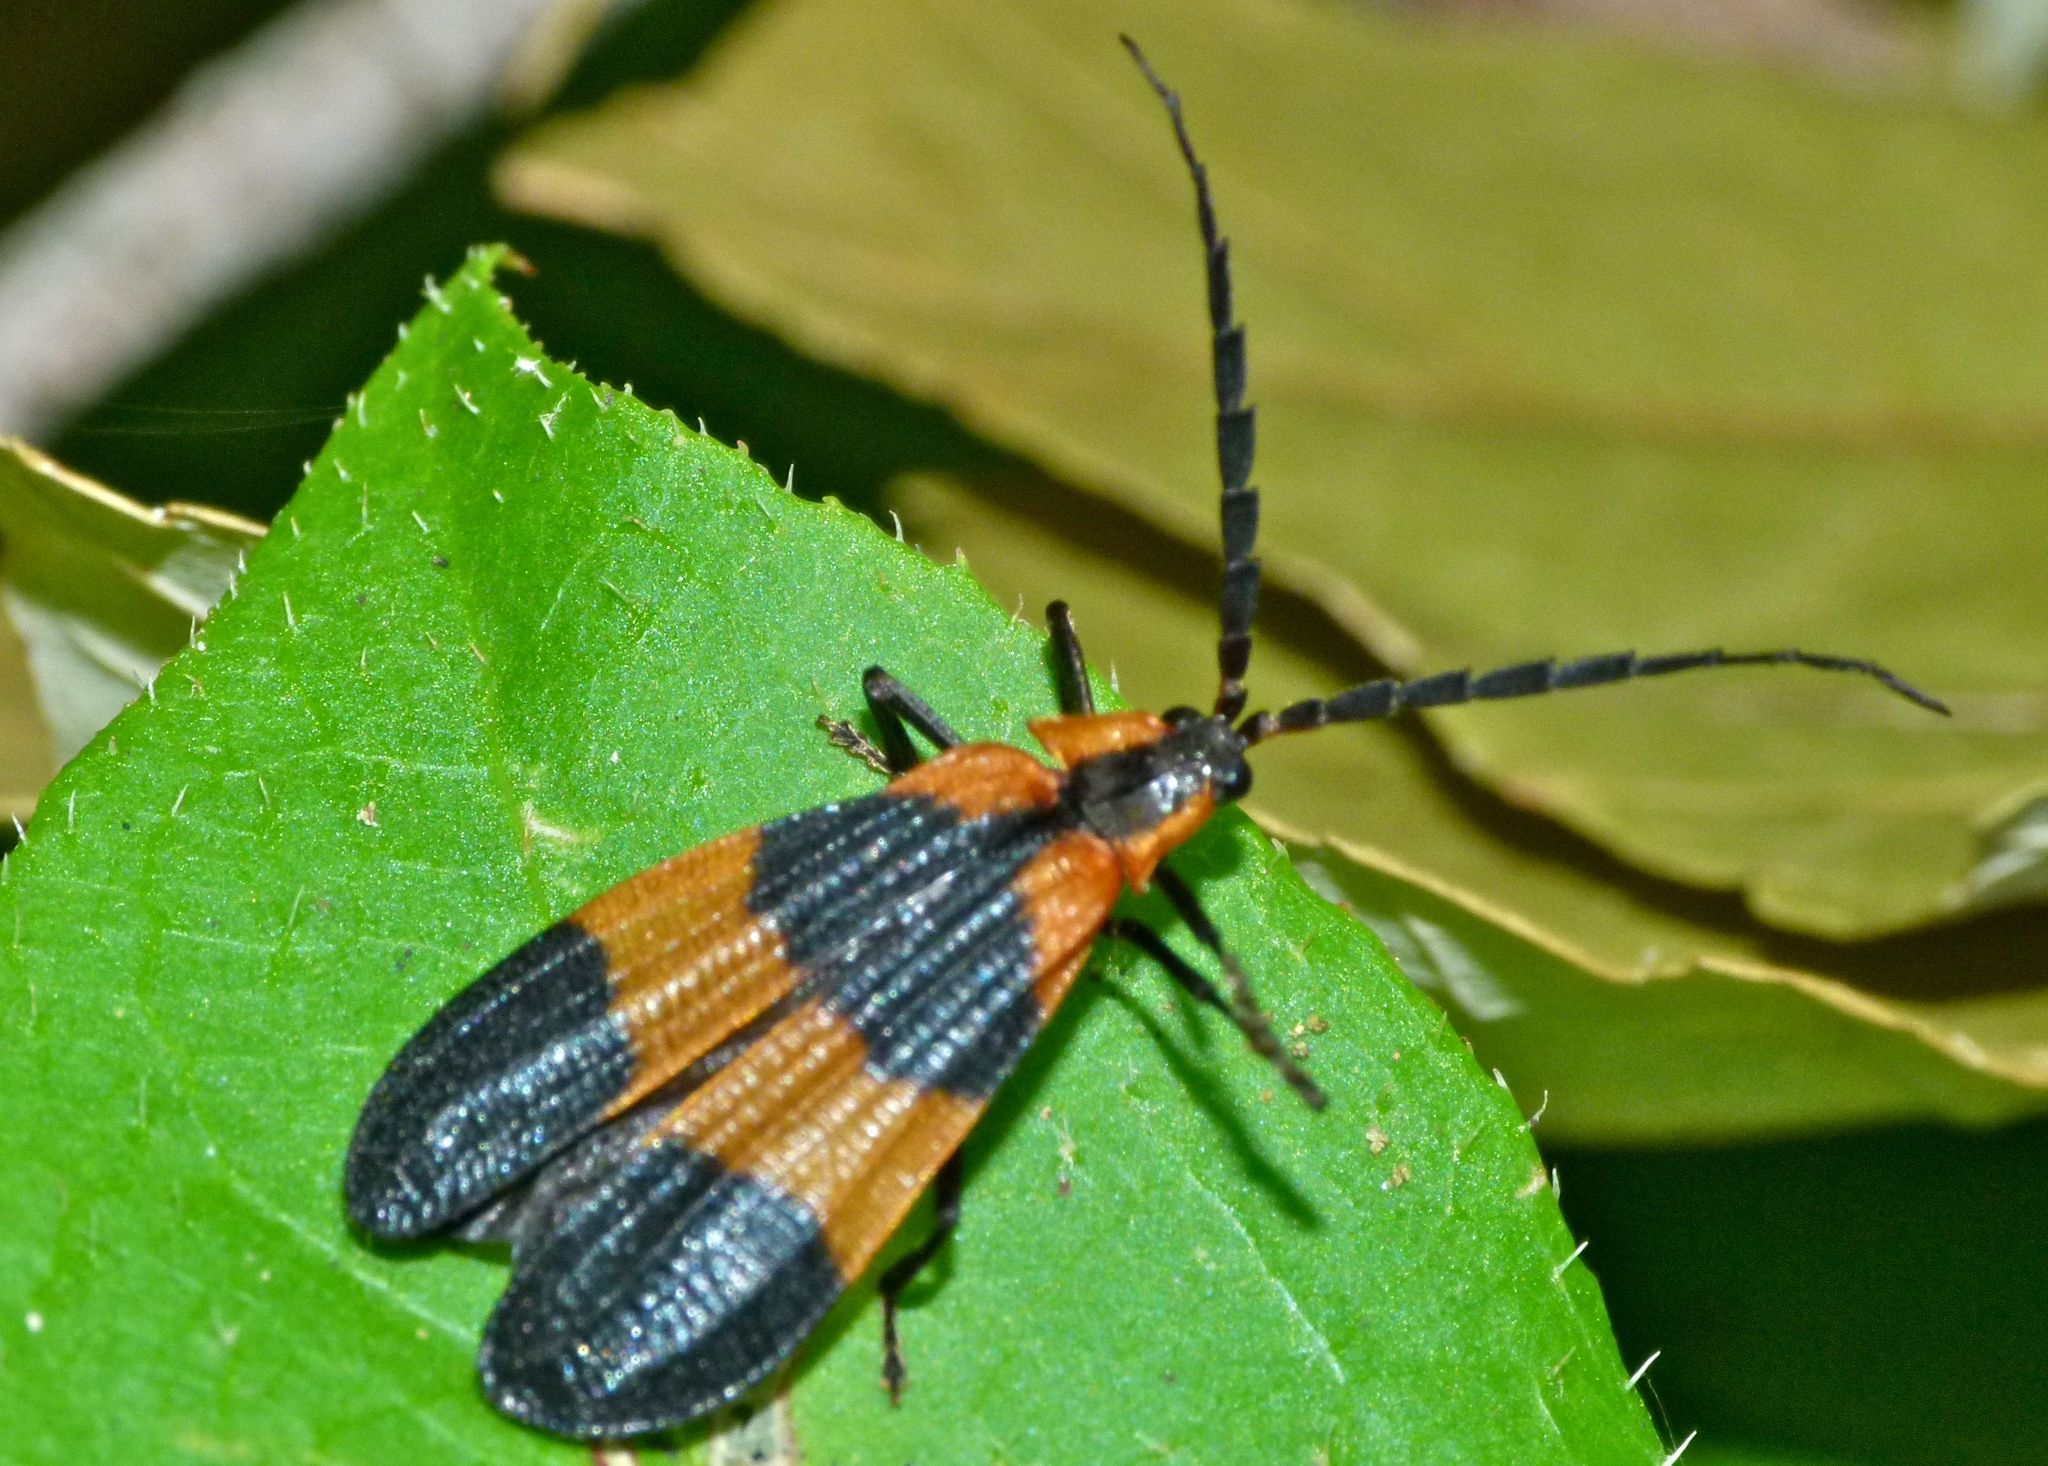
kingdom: Animalia
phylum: Arthropoda
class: Insecta
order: Coleoptera
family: Lycidae
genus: Calopteron
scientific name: Calopteron reticulatum
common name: Banded net-winged beetle
